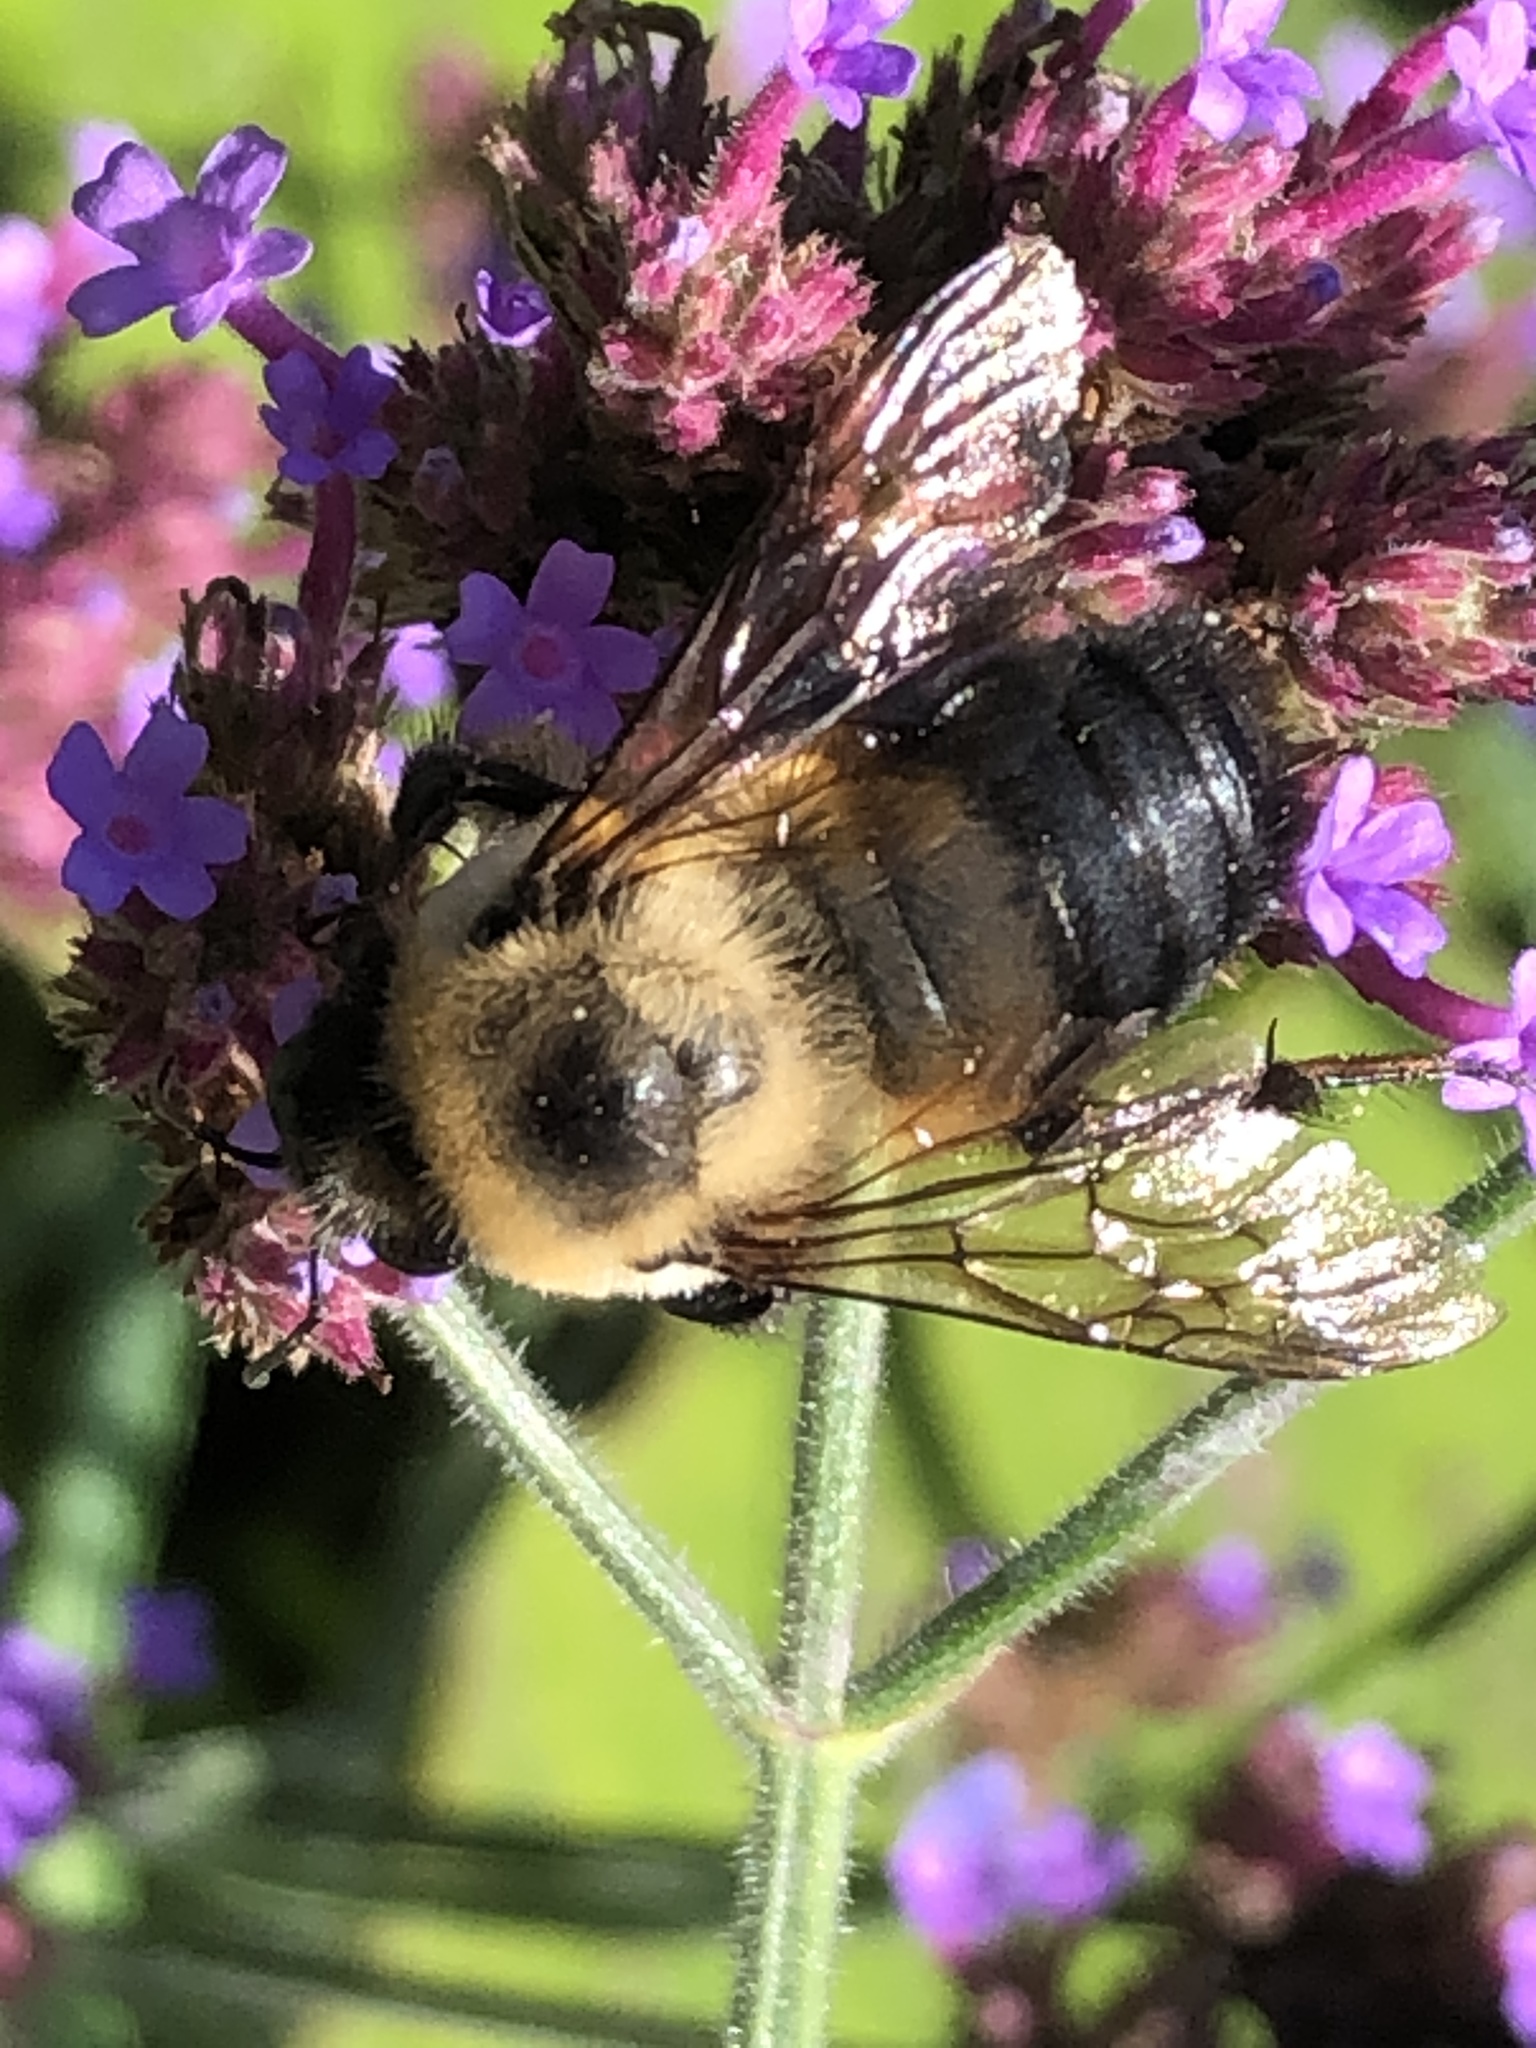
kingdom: Animalia
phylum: Arthropoda
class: Insecta
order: Hymenoptera
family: Apidae
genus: Bombus
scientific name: Bombus griseocollis
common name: Brown-belted bumble bee
